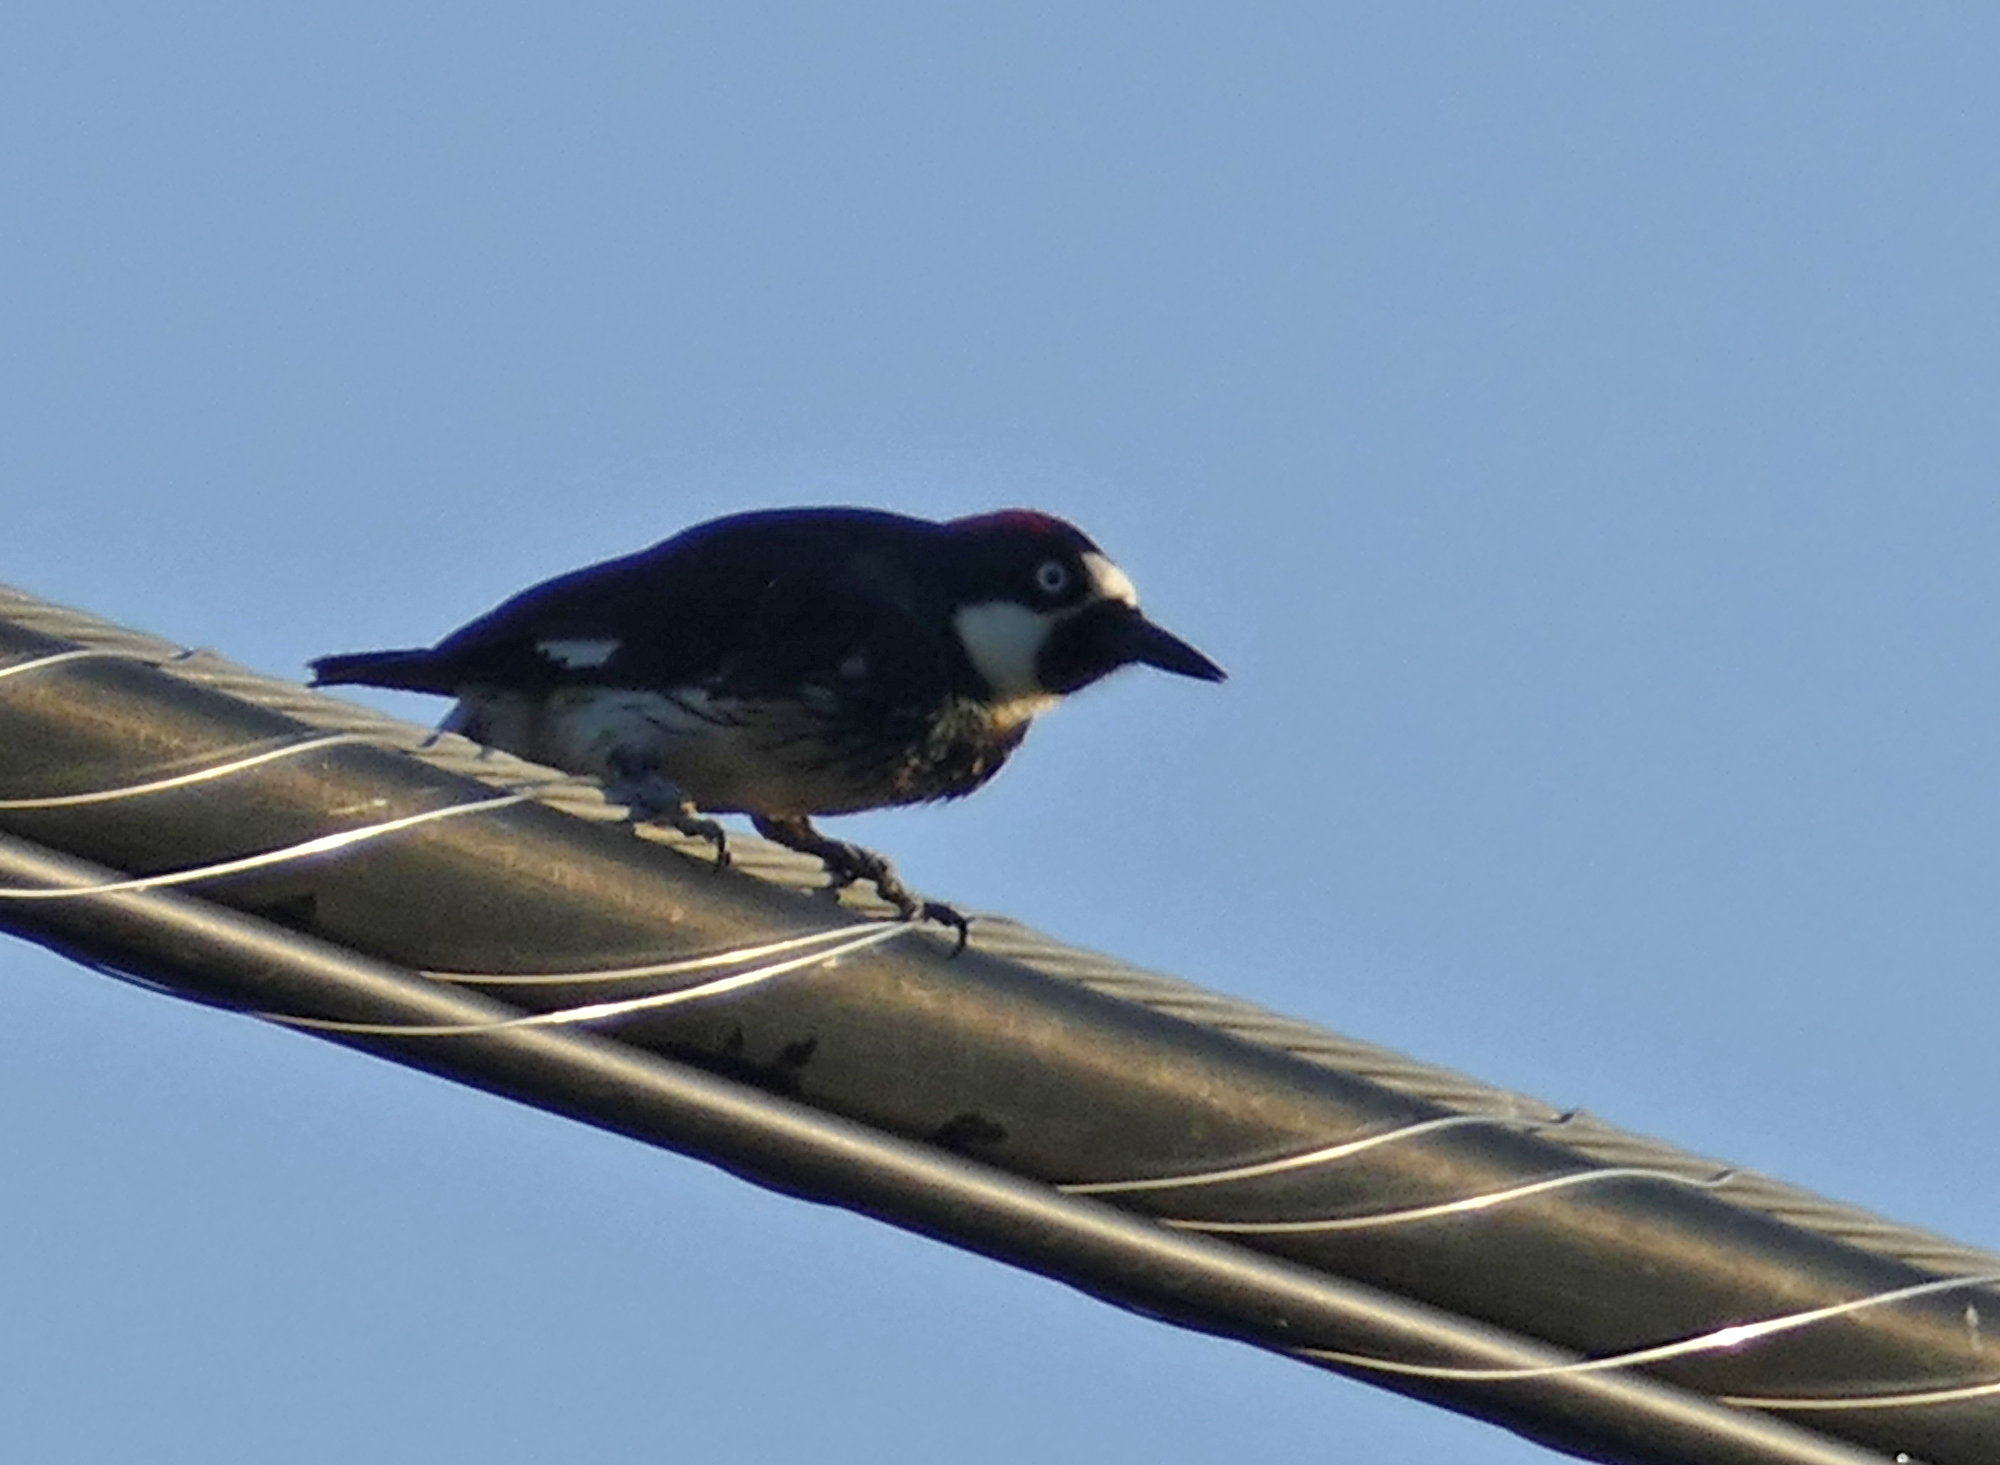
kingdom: Animalia
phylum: Chordata
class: Aves
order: Piciformes
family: Picidae
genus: Melanerpes
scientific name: Melanerpes formicivorus
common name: Acorn woodpecker
